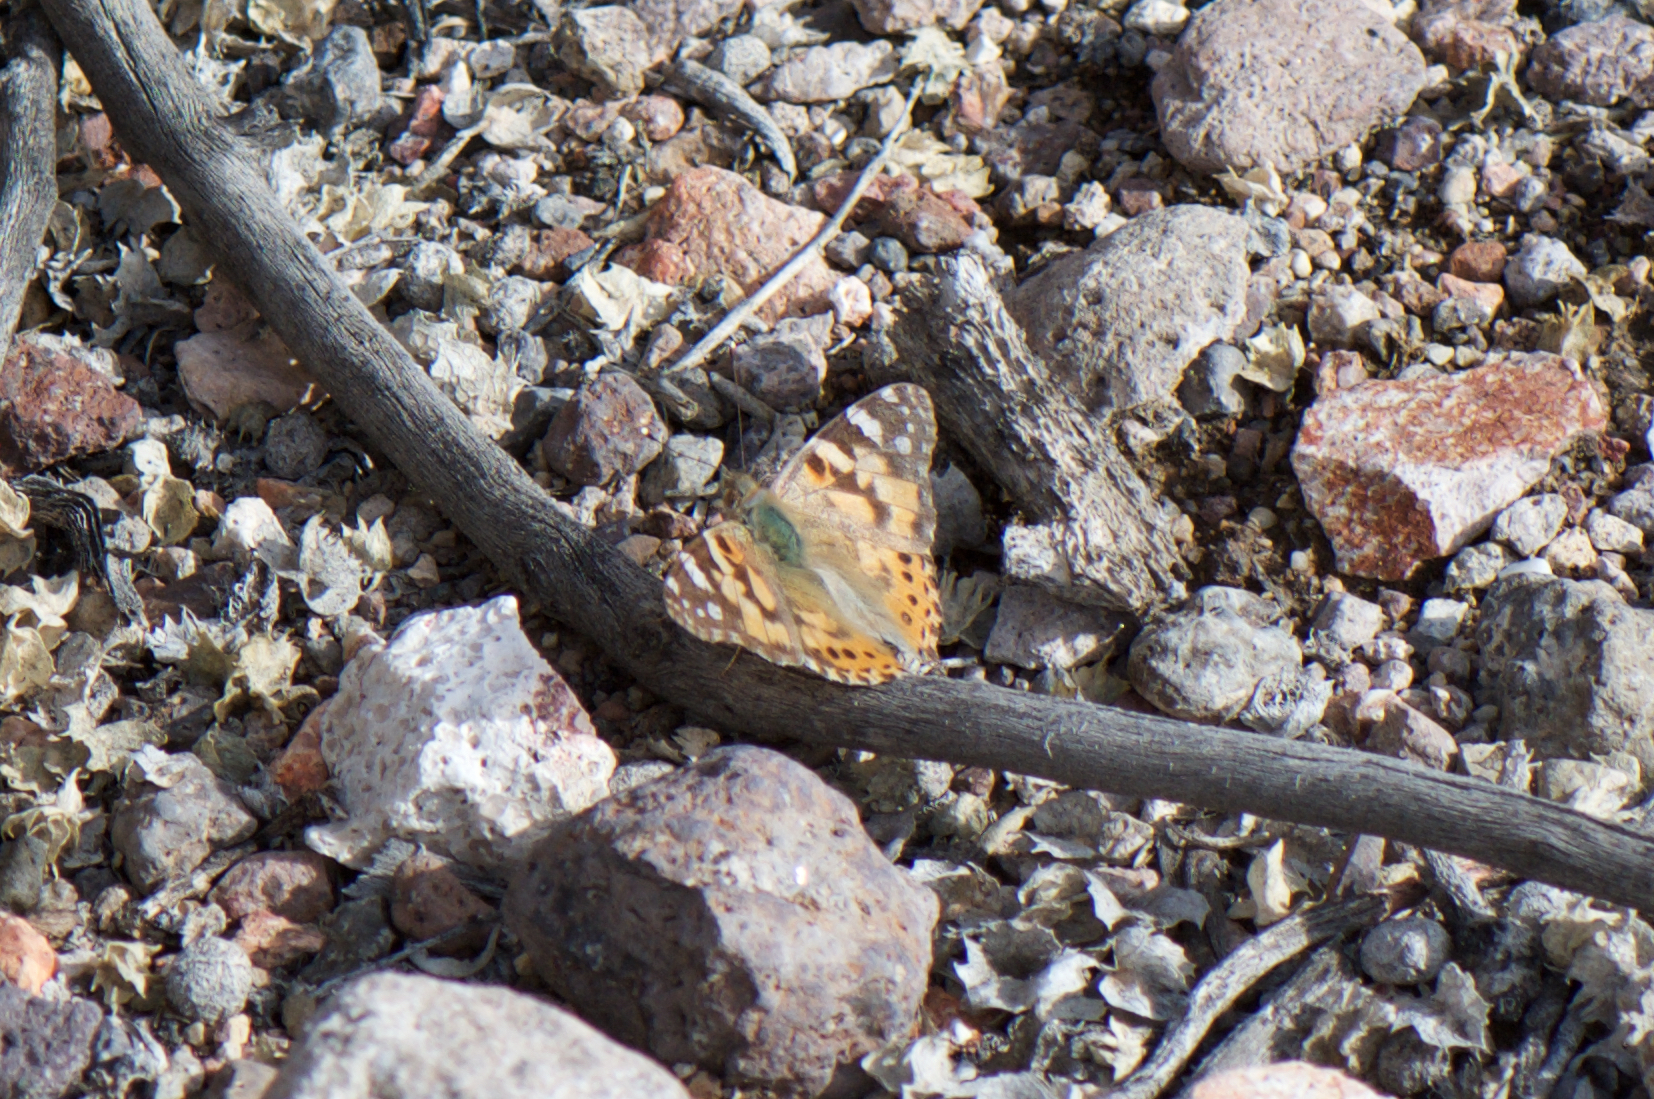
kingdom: Animalia
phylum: Arthropoda
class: Insecta
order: Lepidoptera
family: Nymphalidae
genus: Vanessa
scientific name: Vanessa cardui
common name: Painted lady
